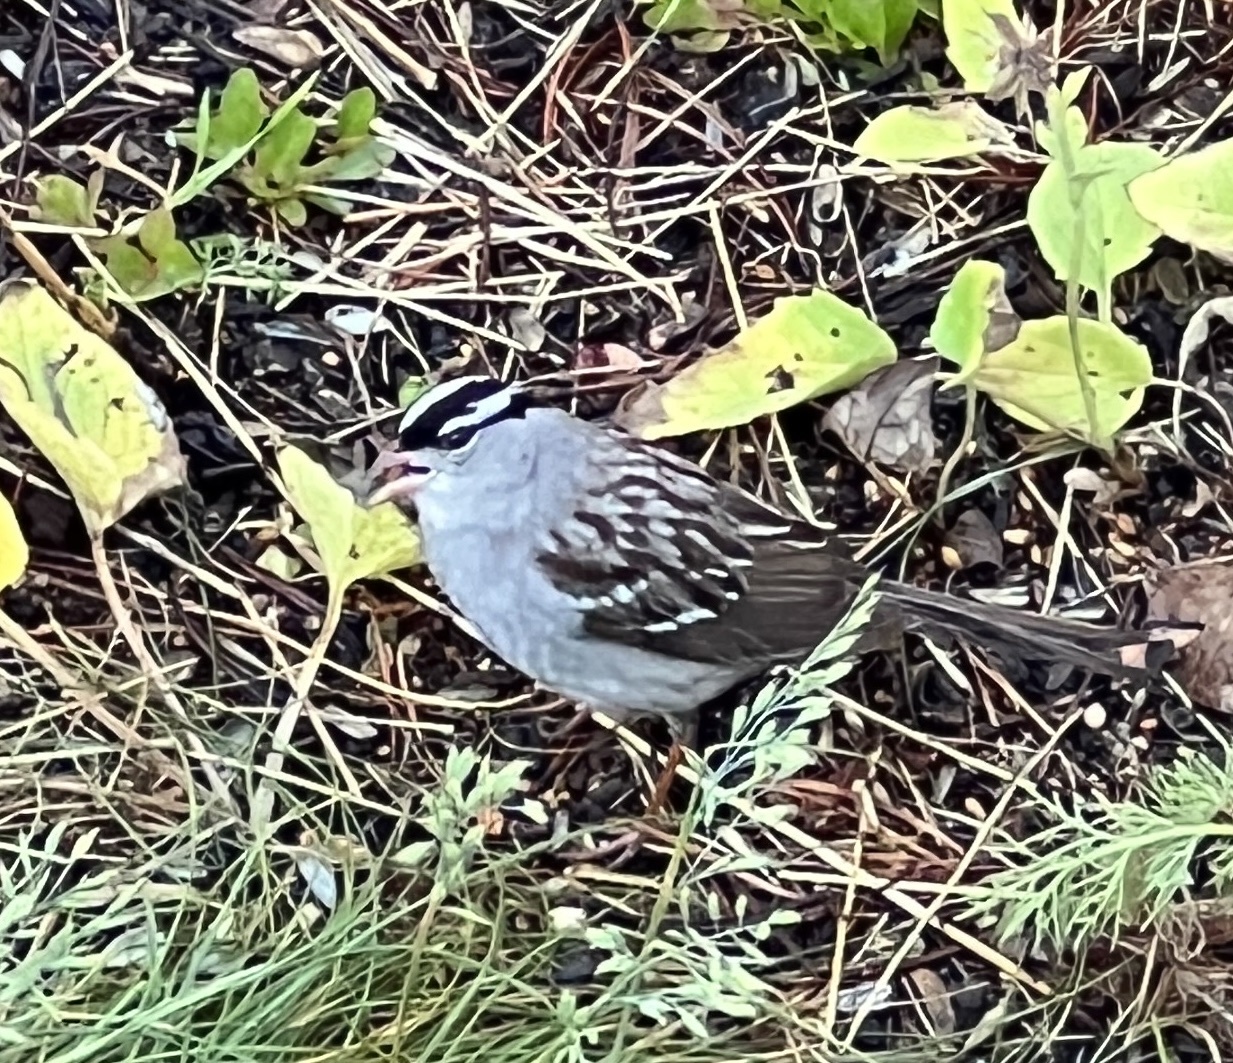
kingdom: Animalia
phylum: Chordata
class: Aves
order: Passeriformes
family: Passerellidae
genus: Zonotrichia
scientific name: Zonotrichia leucophrys
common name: White-crowned sparrow
